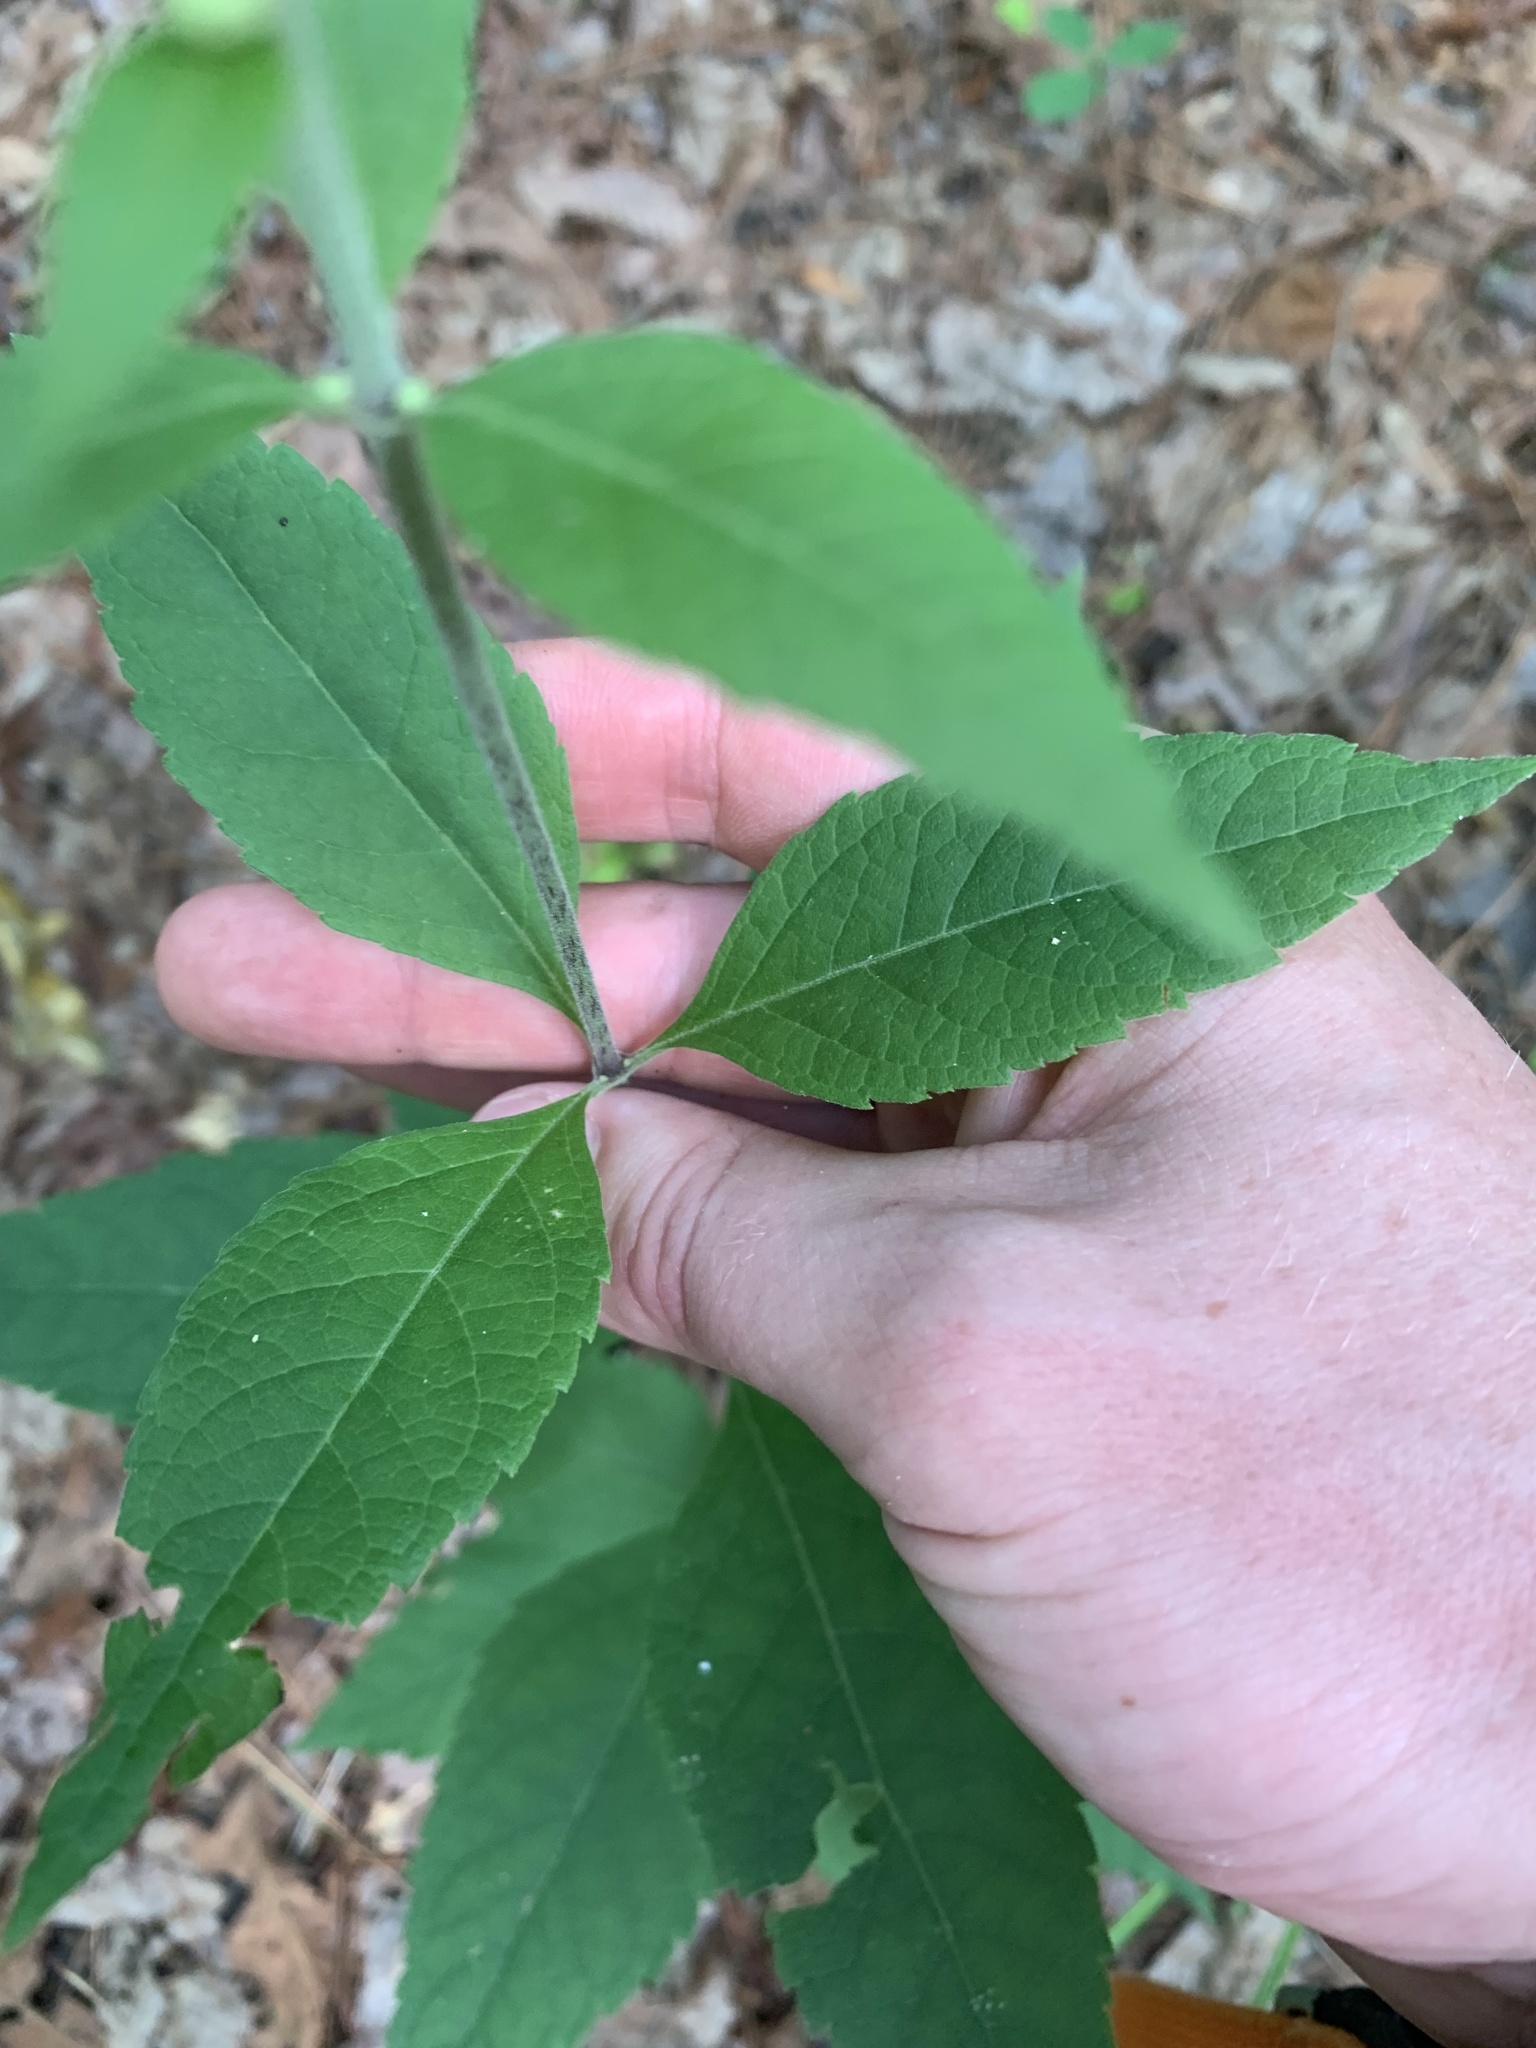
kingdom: Plantae
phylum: Tracheophyta
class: Magnoliopsida
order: Asterales
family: Asteraceae
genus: Eutrochium
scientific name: Eutrochium purpureum
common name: Gravelroot
